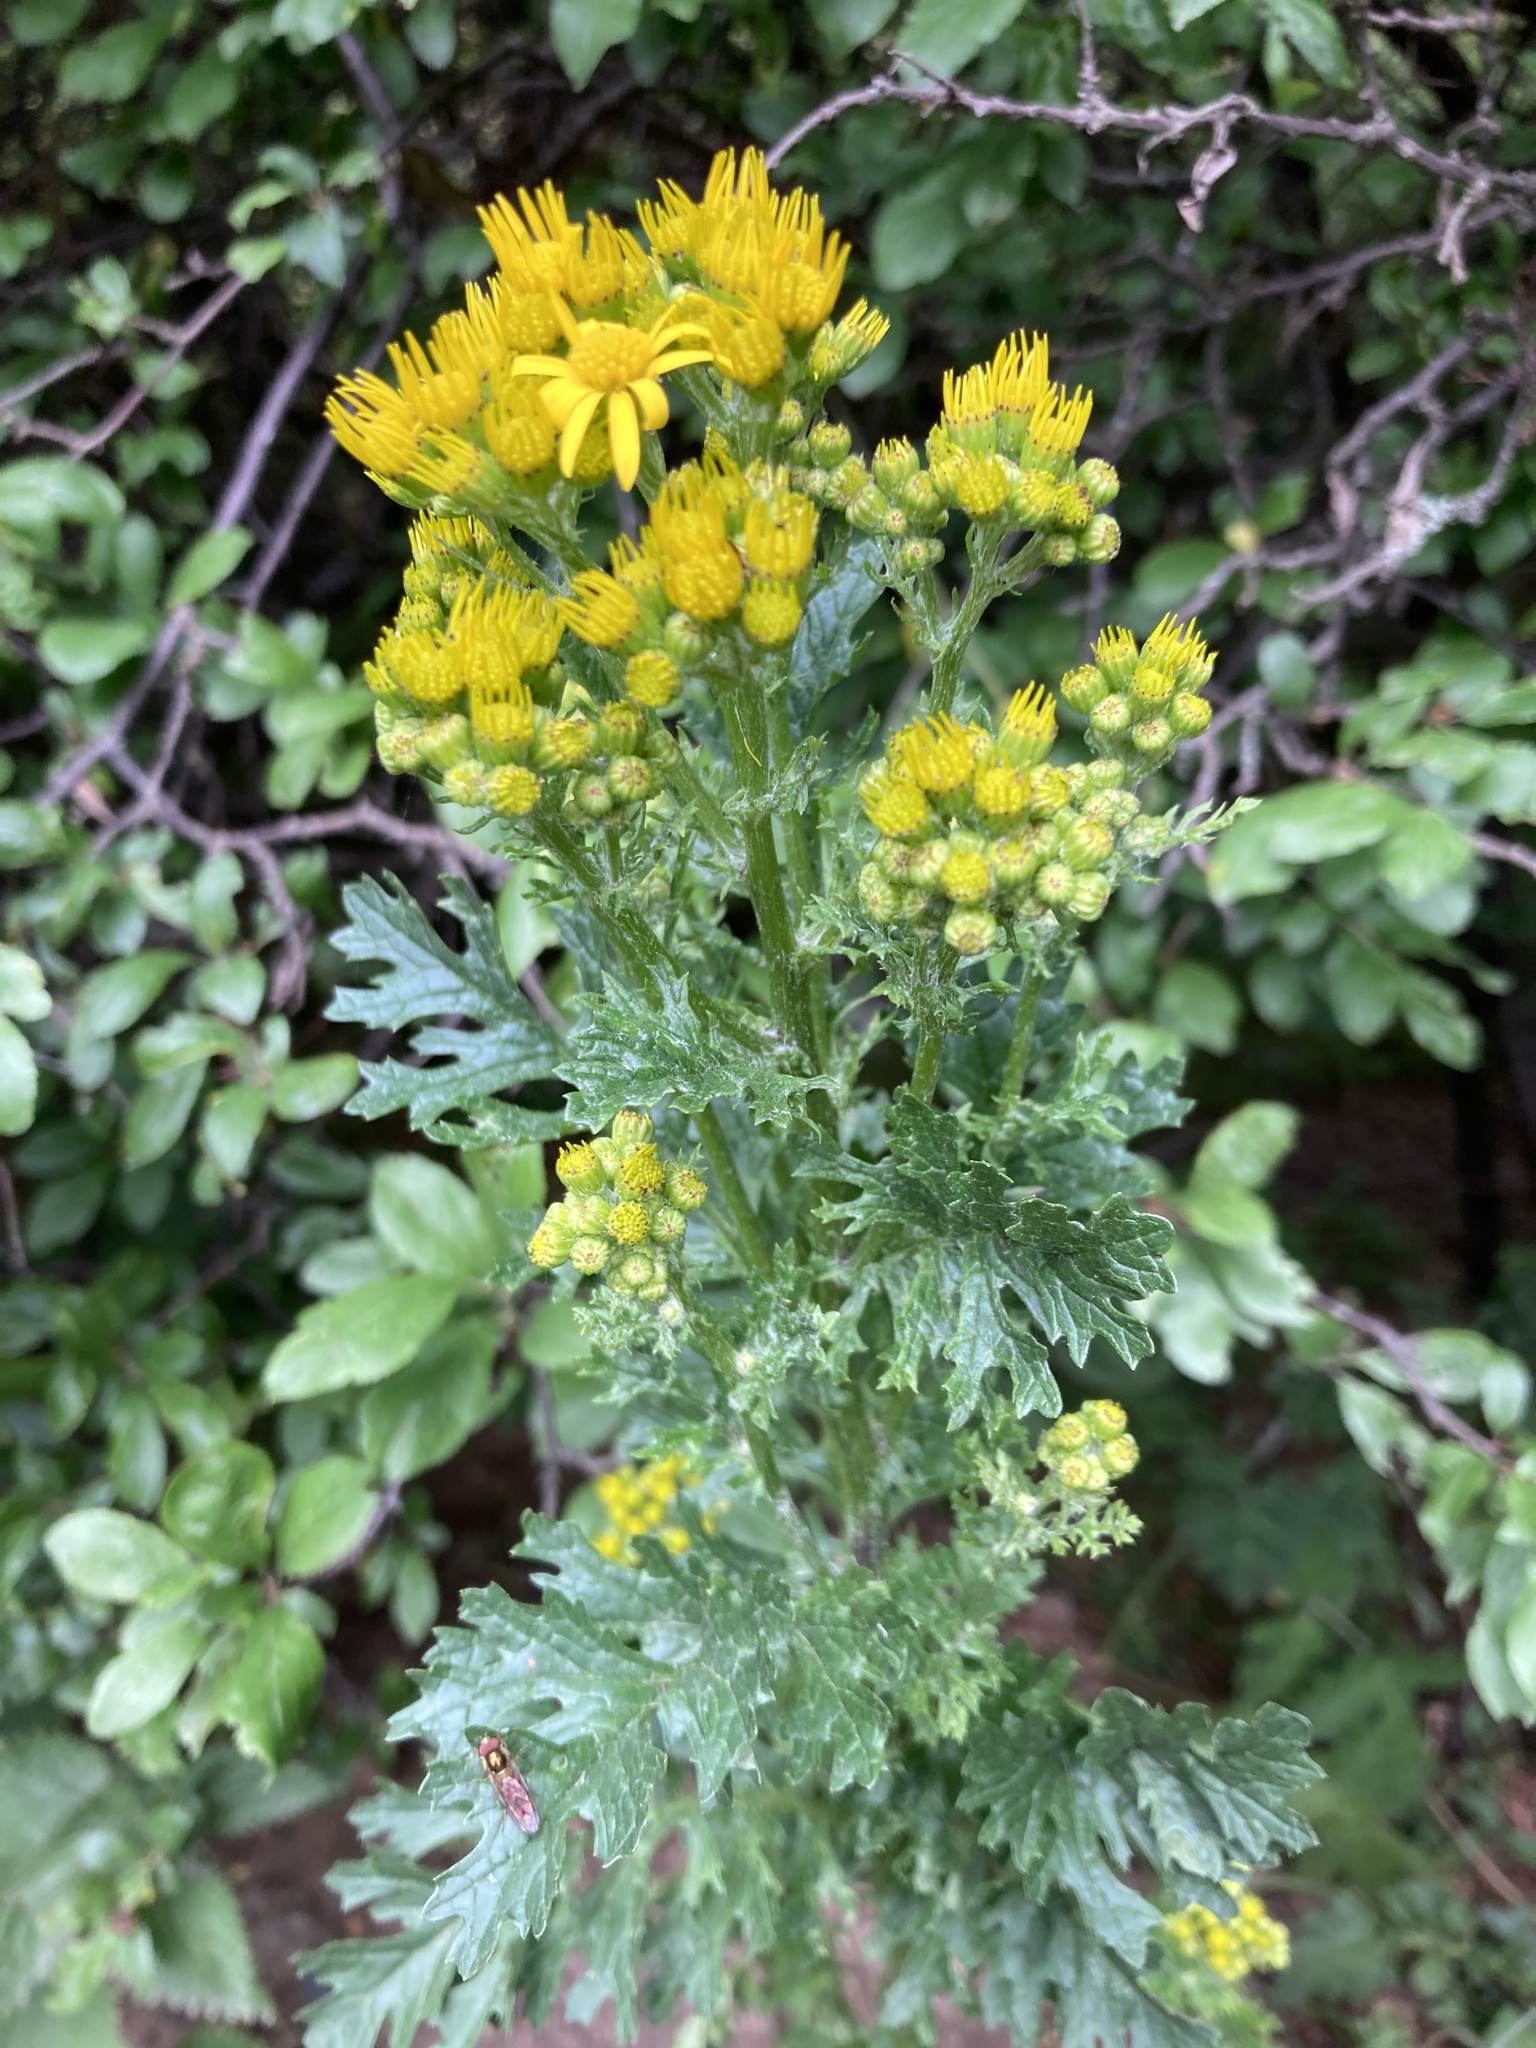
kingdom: Plantae
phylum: Tracheophyta
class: Magnoliopsida
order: Asterales
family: Asteraceae
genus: Jacobaea
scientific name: Jacobaea vulgaris
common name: Stinking willie
